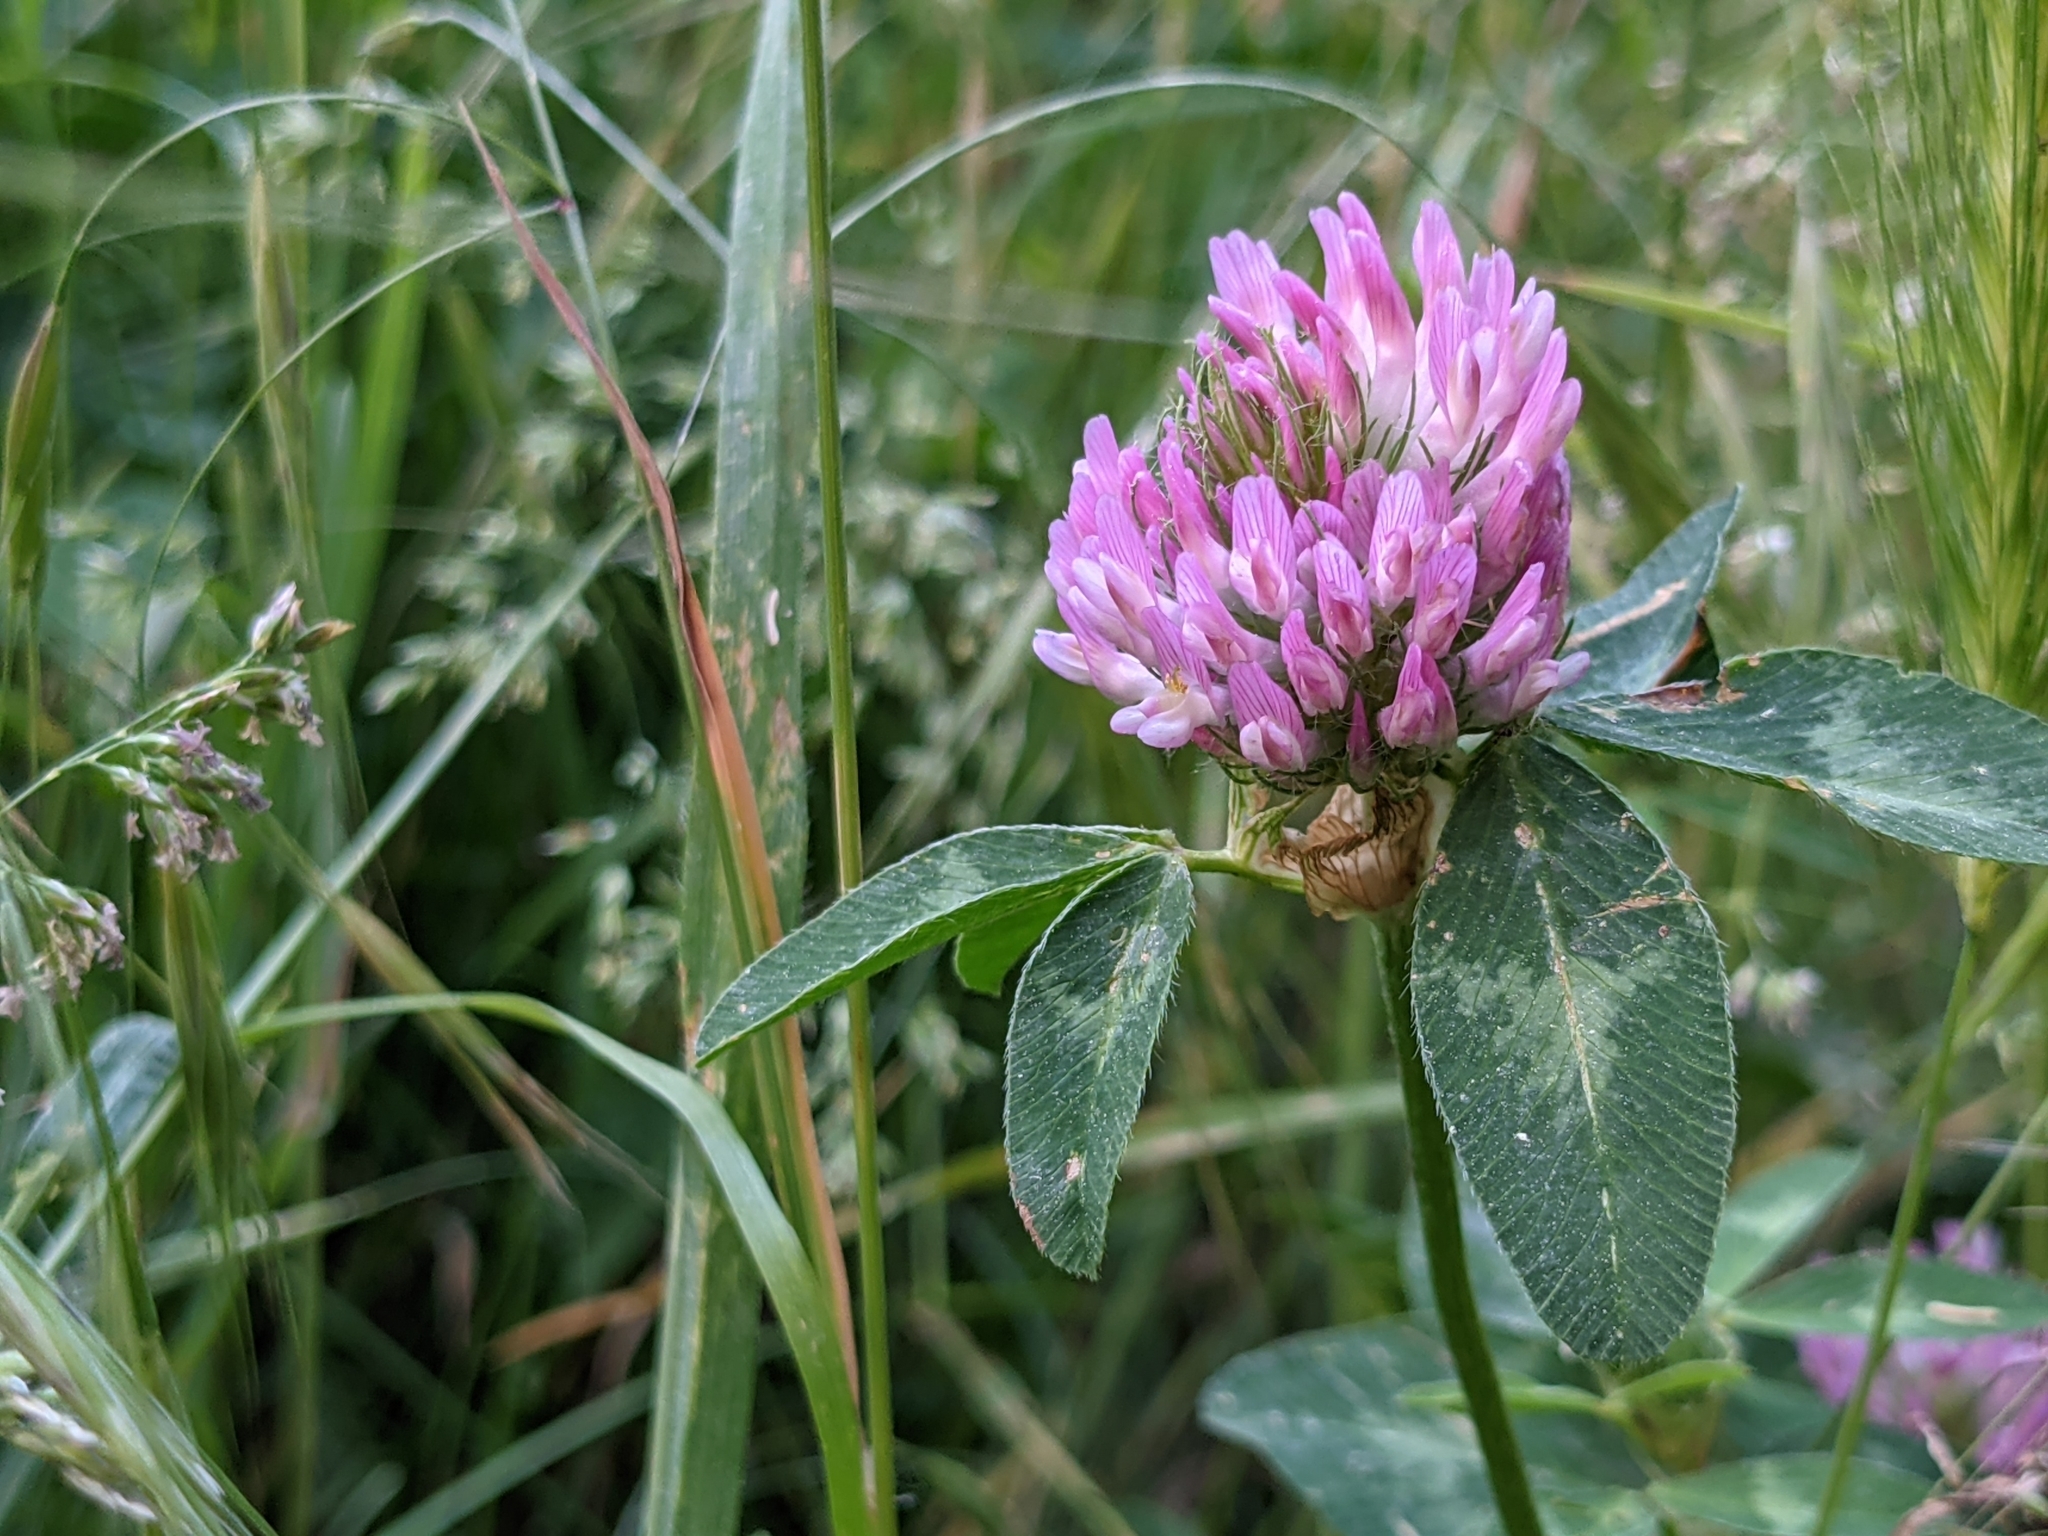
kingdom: Plantae
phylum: Tracheophyta
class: Magnoliopsida
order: Fabales
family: Fabaceae
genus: Trifolium
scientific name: Trifolium pratense
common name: Red clover
